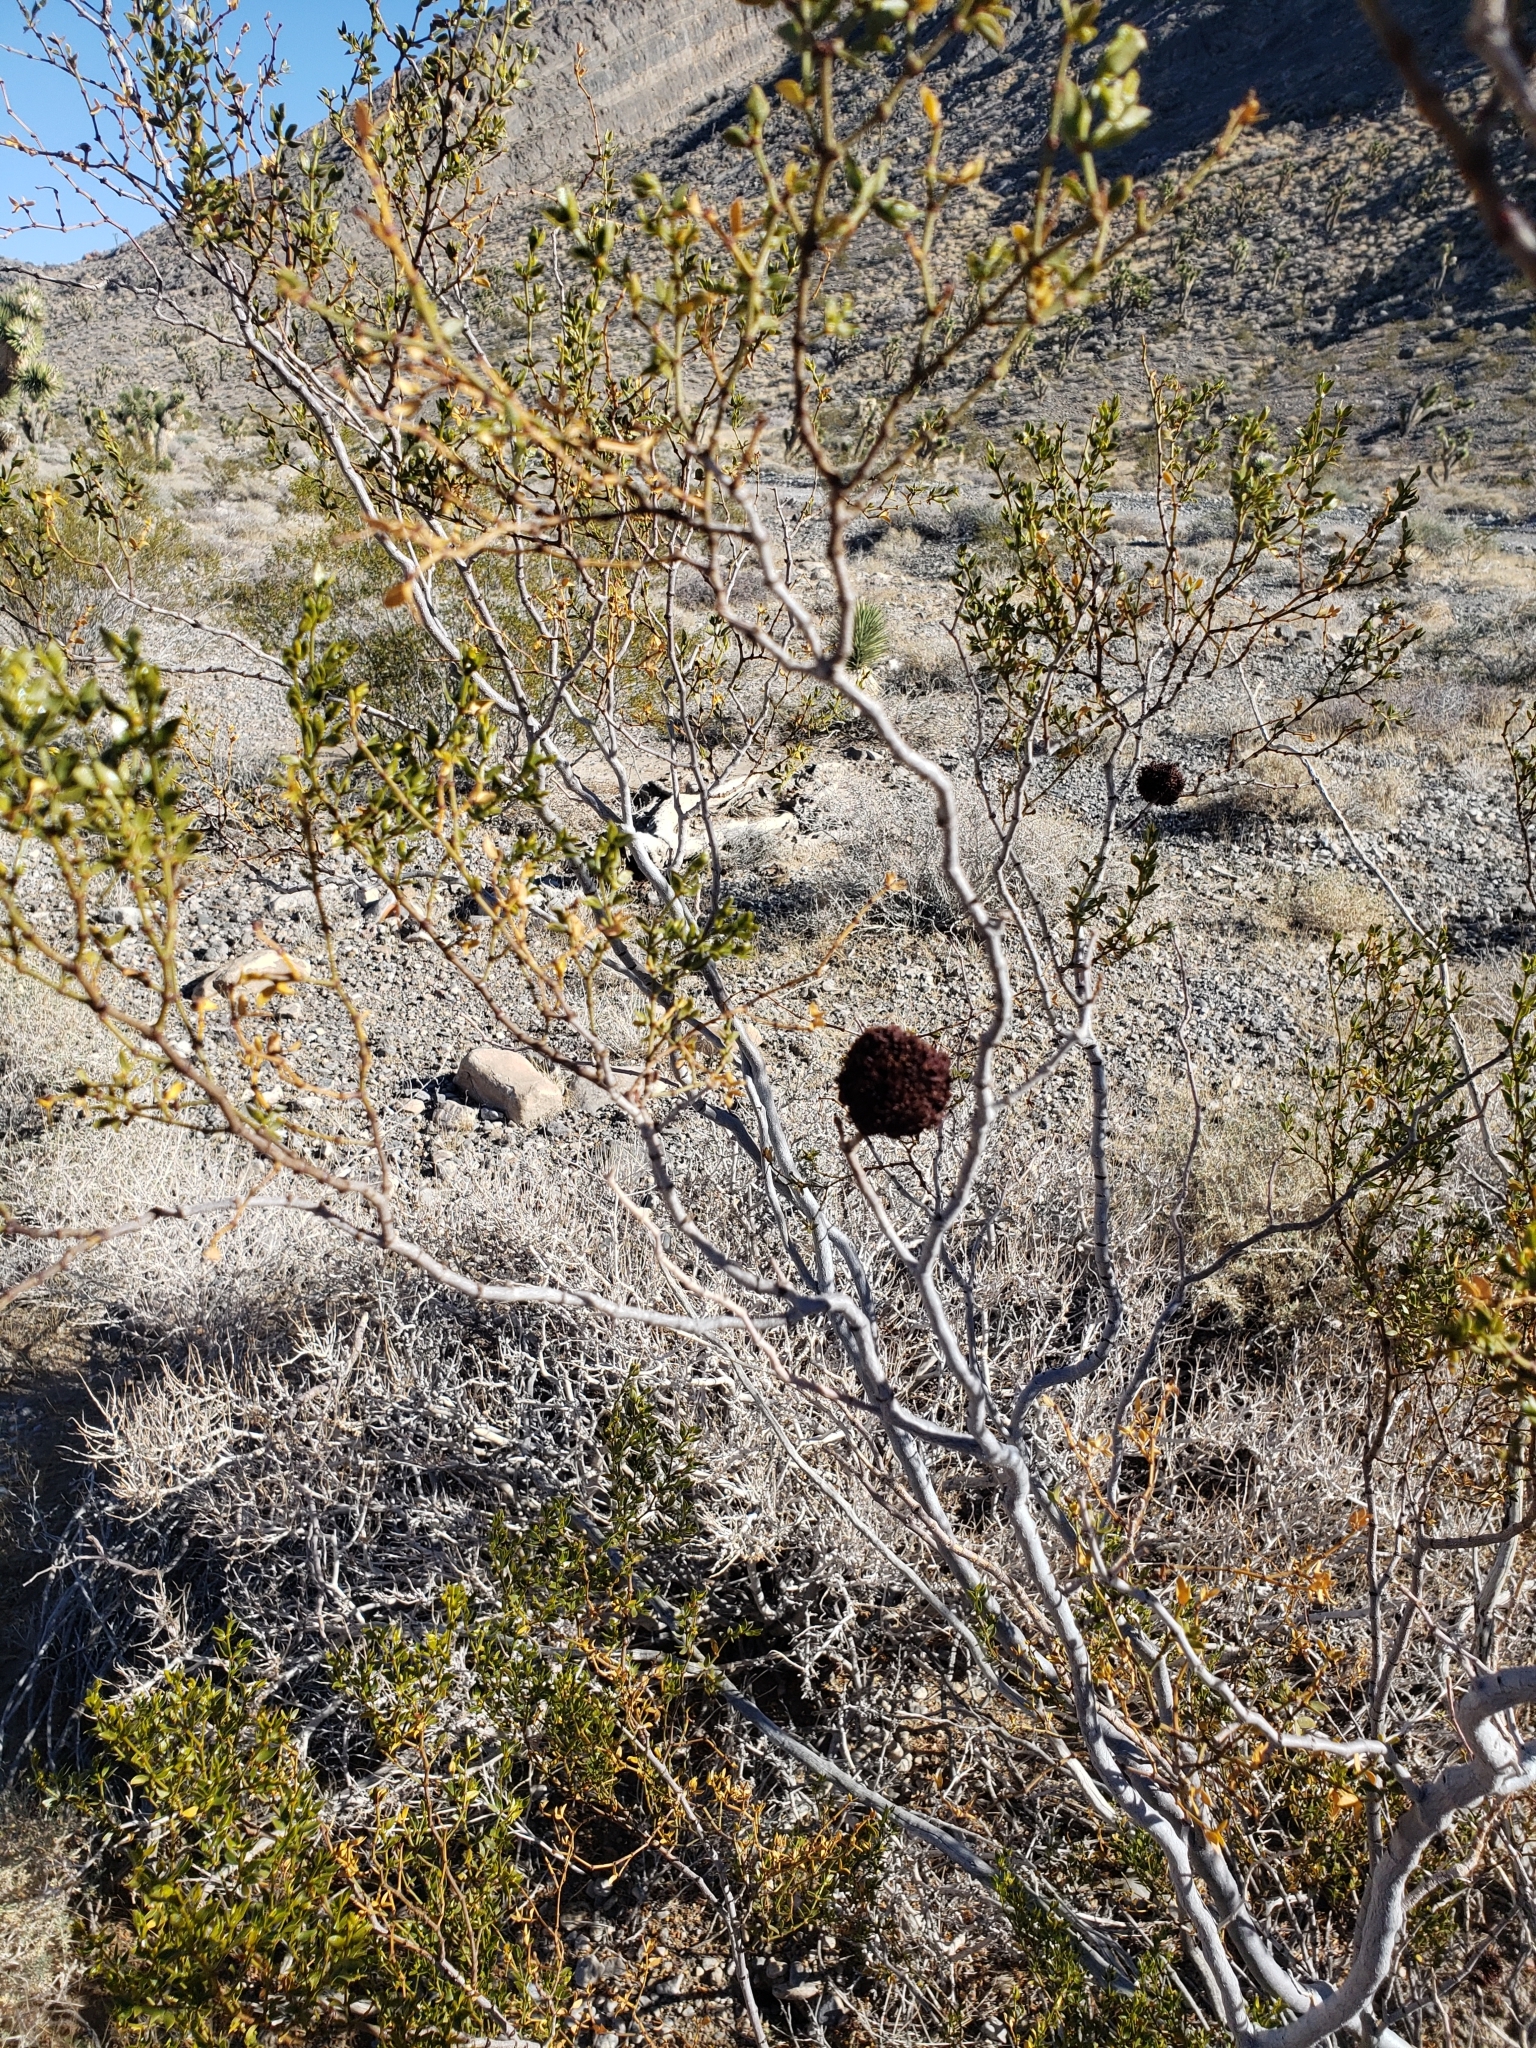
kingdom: Animalia
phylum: Arthropoda
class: Insecta
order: Diptera
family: Cecidomyiidae
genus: Asphondylia
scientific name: Asphondylia auripila
